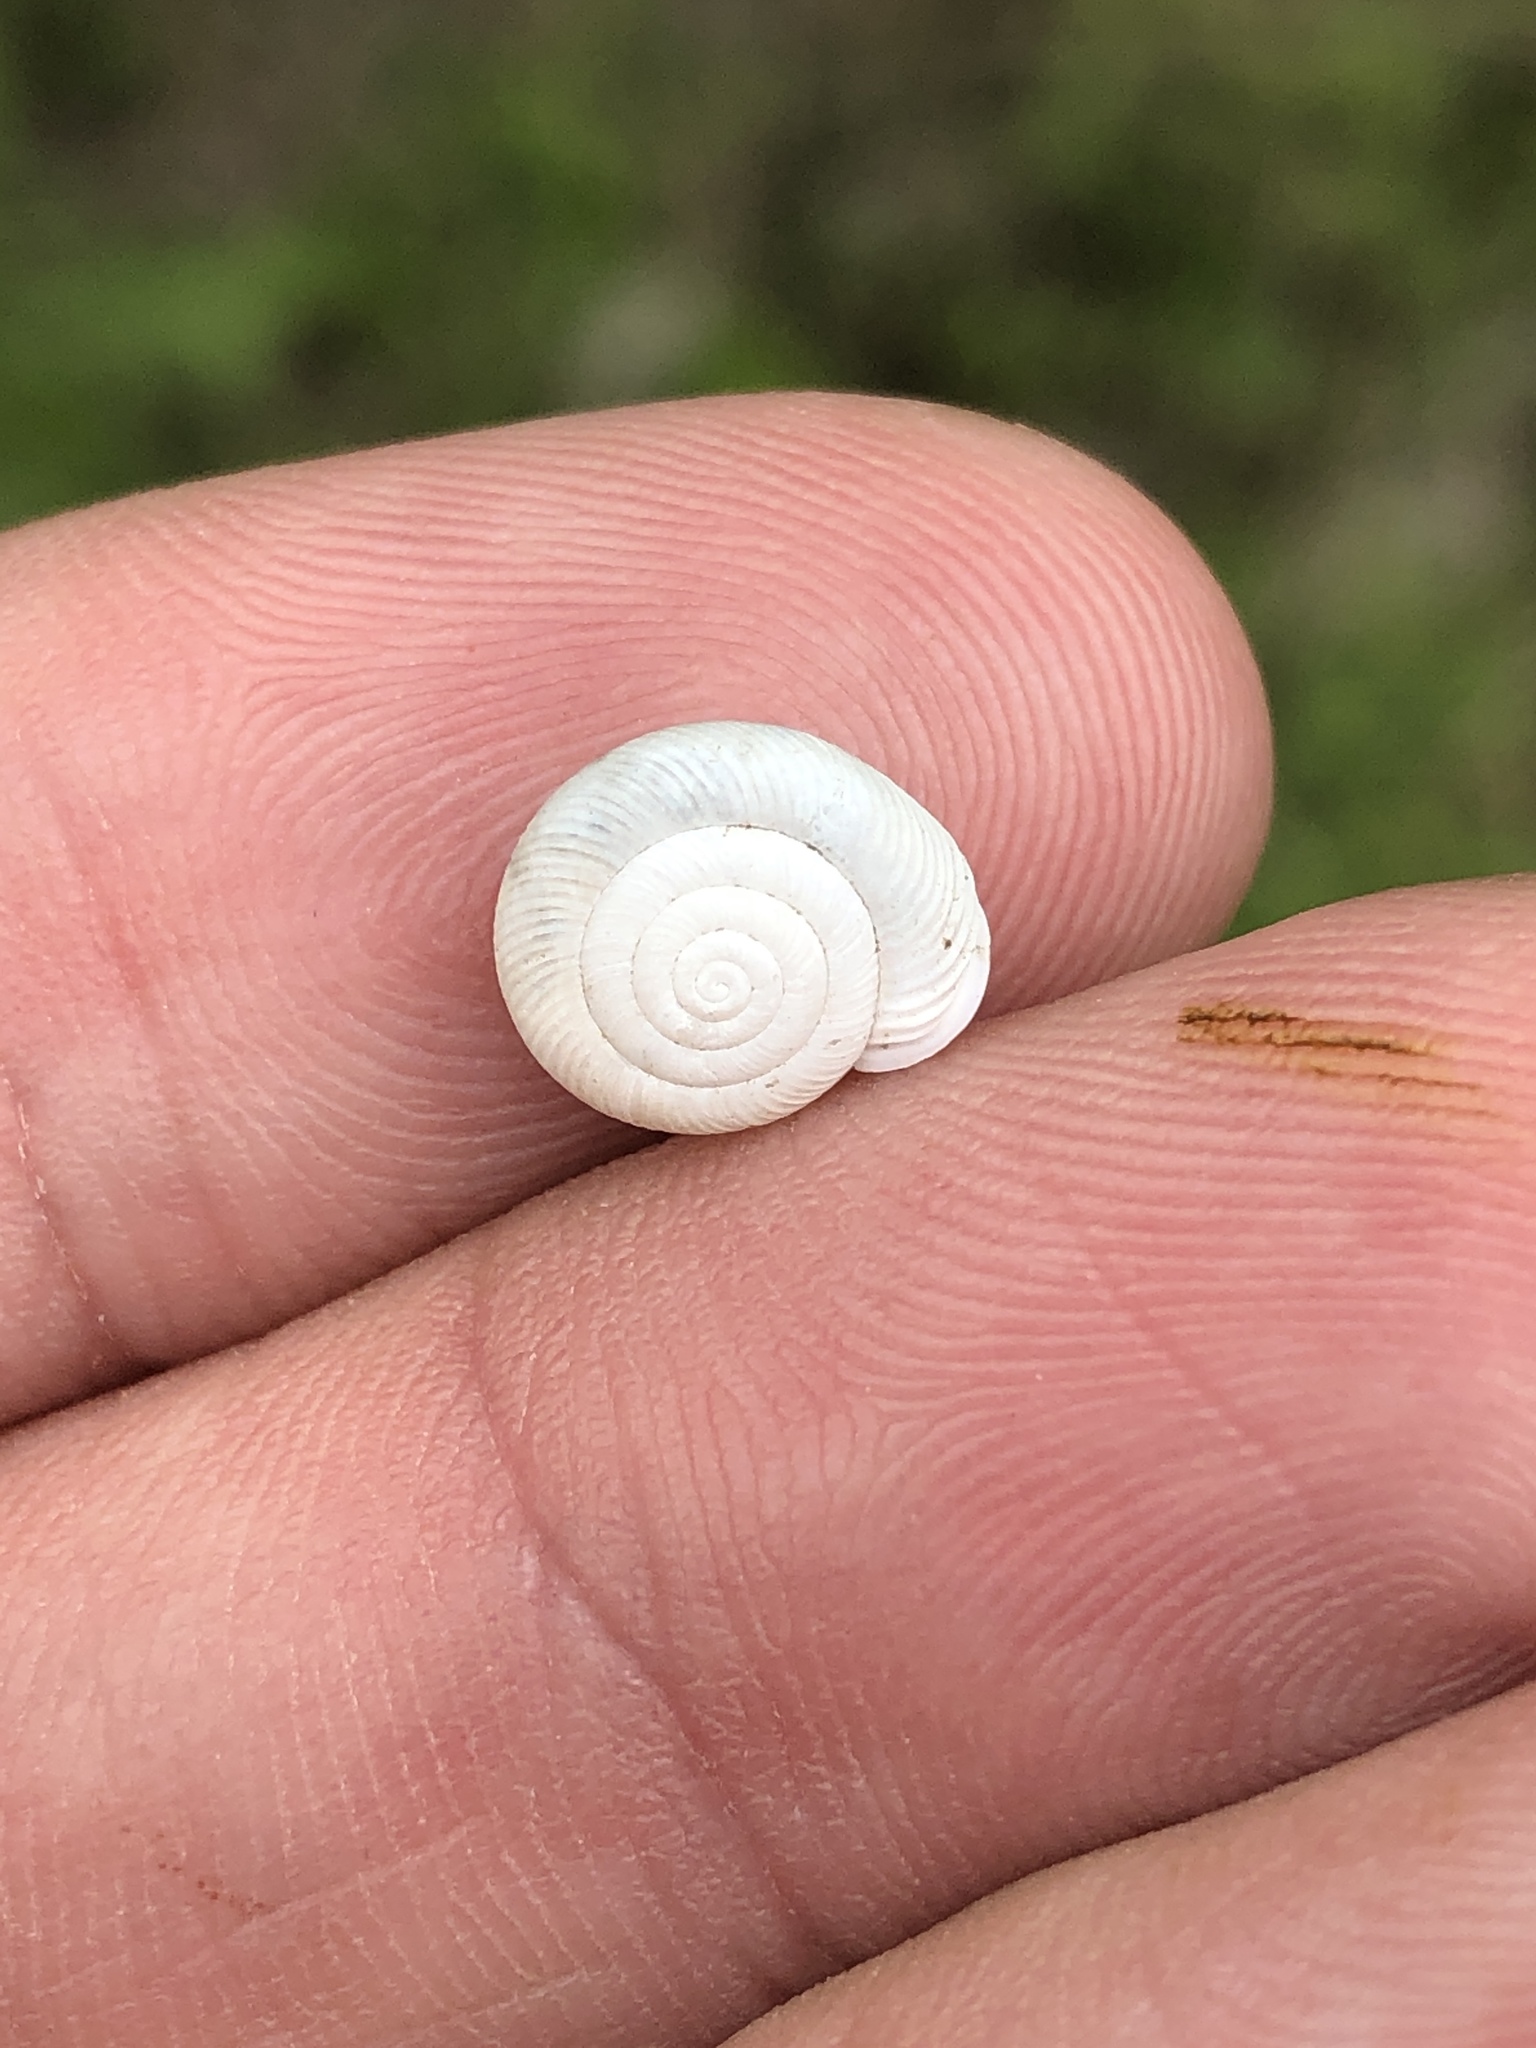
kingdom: Animalia
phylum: Mollusca
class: Gastropoda
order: Stylommatophora
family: Polygyridae
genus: Linisa
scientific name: Linisa texasiana
